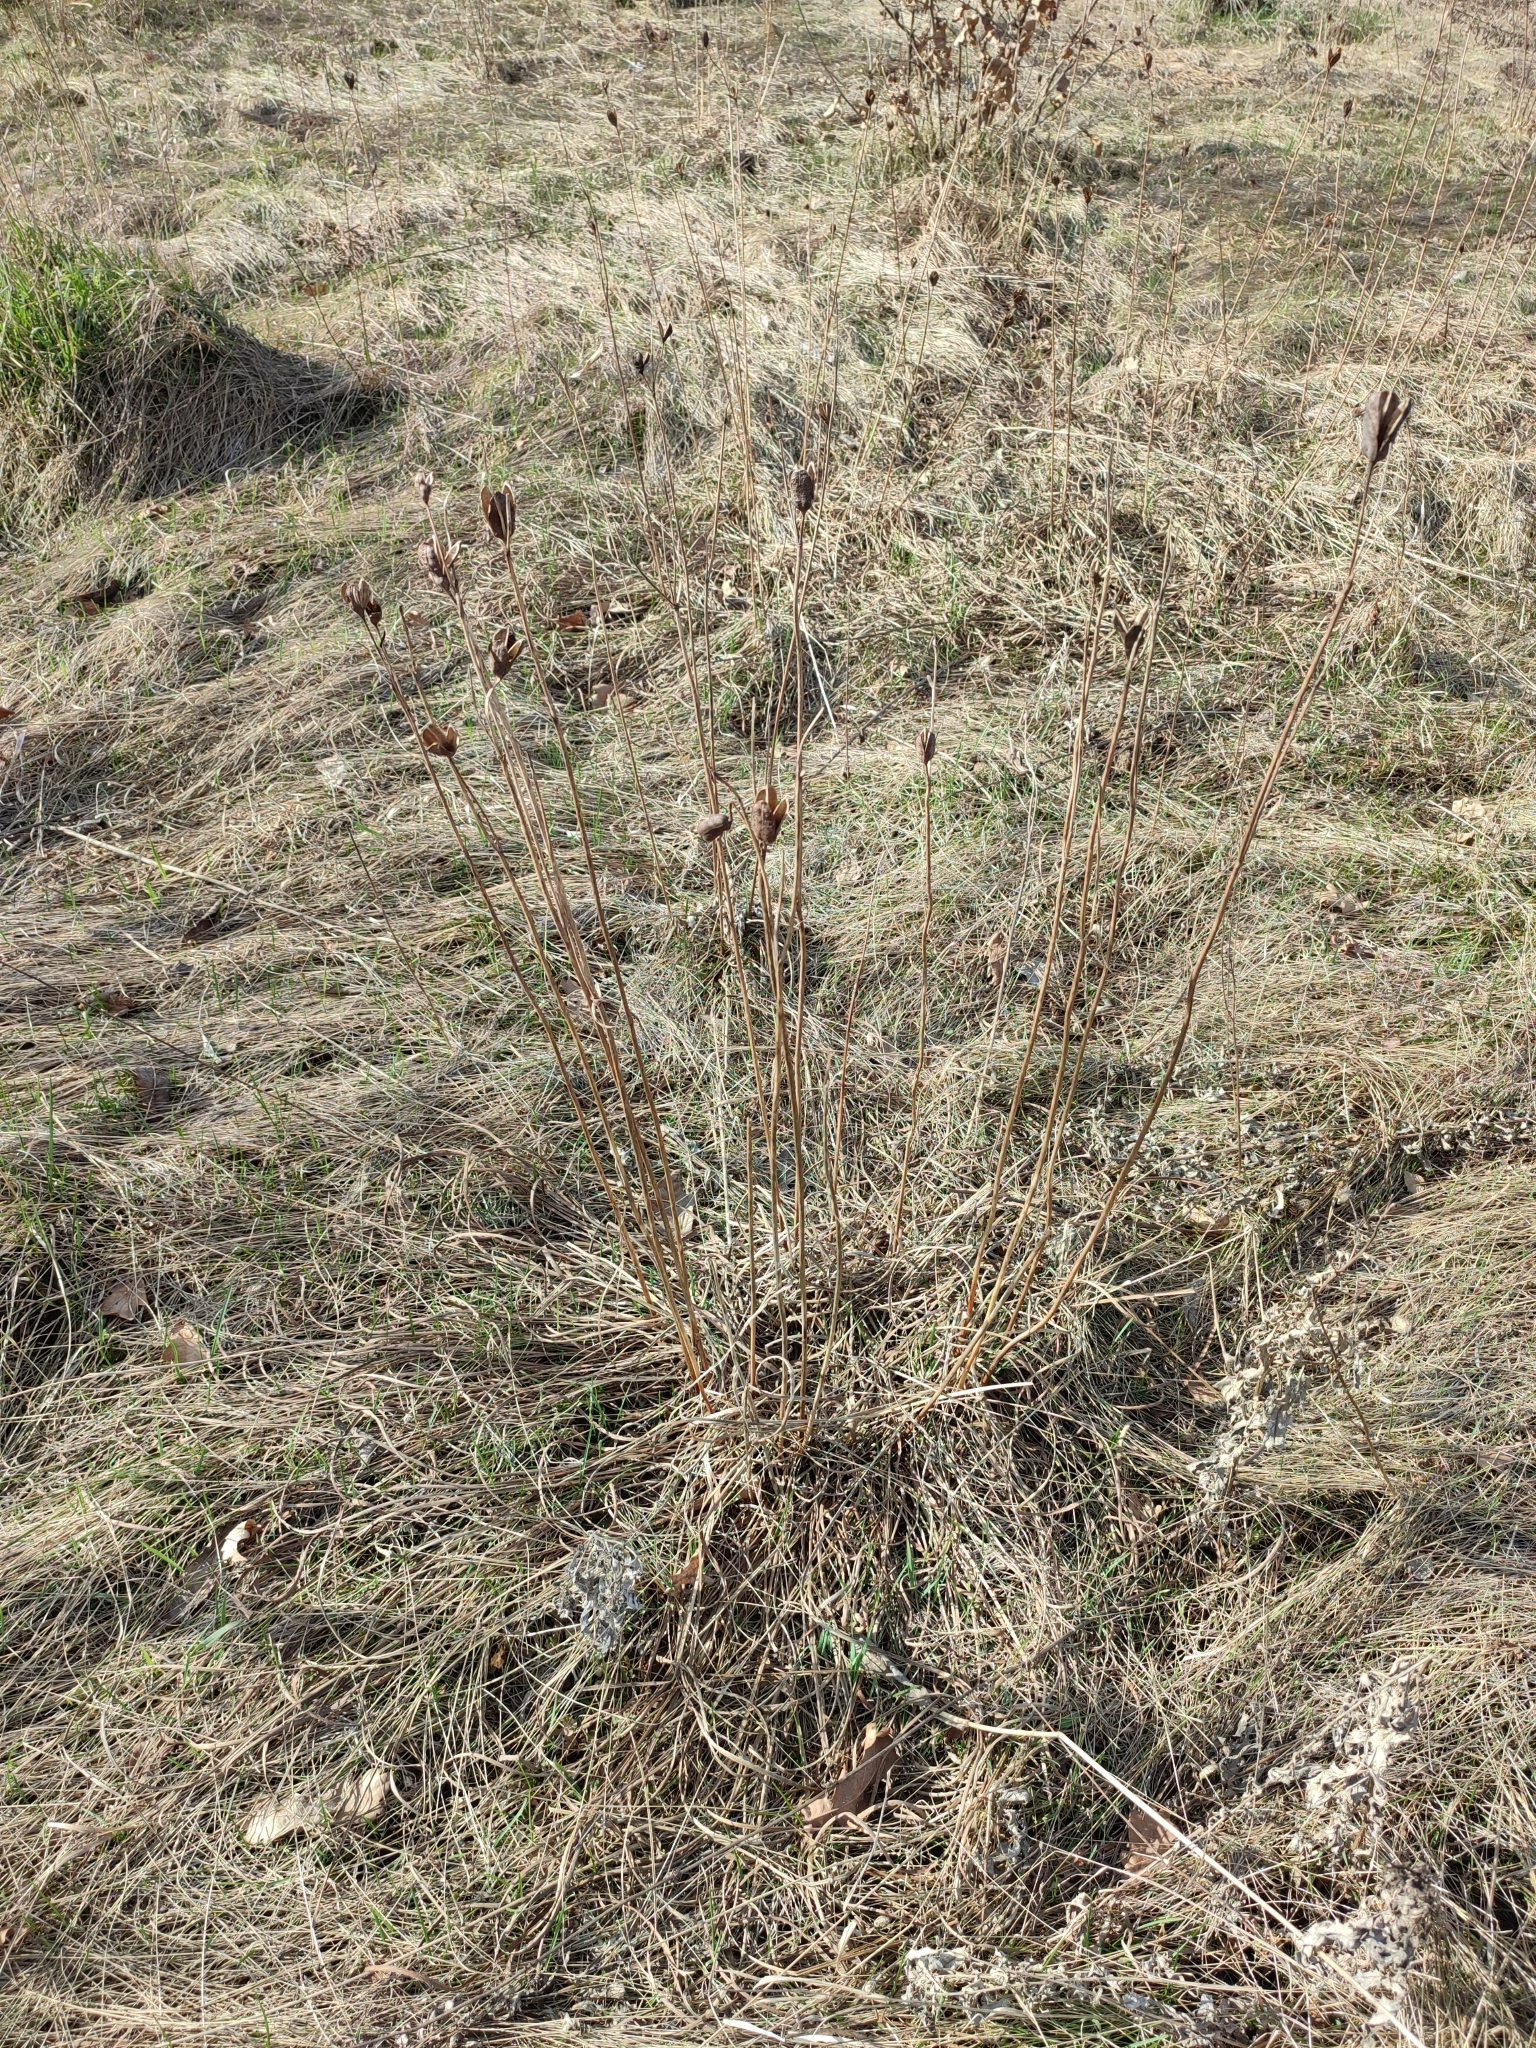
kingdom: Plantae
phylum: Tracheophyta
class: Liliopsida
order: Asparagales
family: Iridaceae
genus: Iris
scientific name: Iris sibirica
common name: Siberian iris
